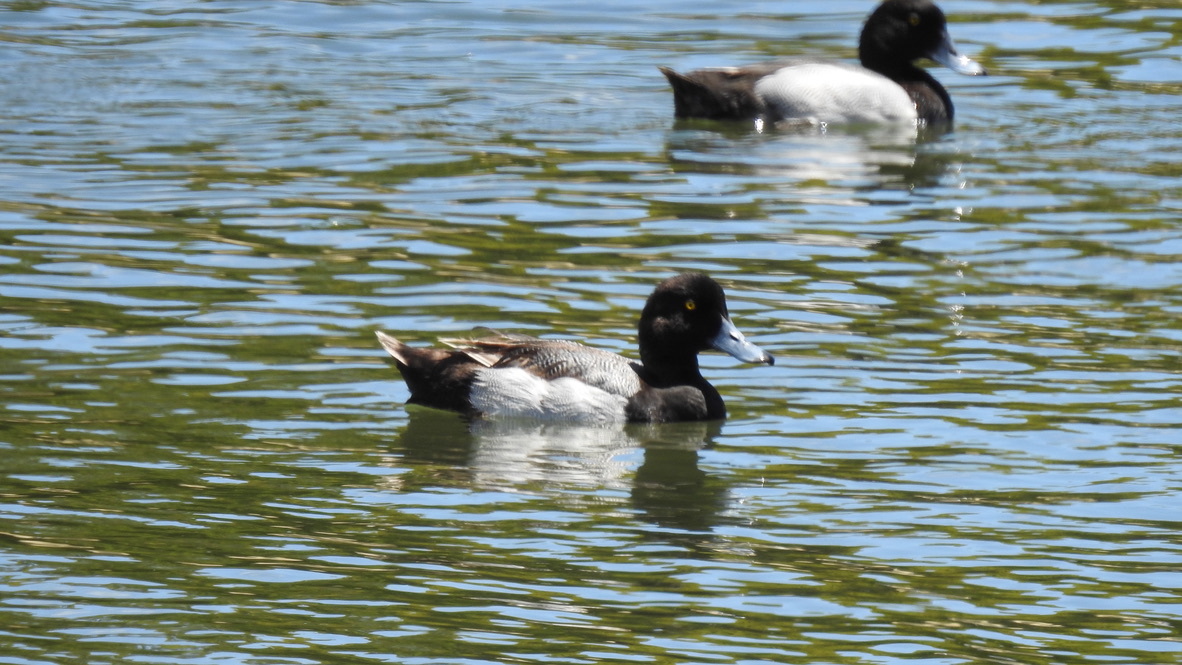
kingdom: Animalia
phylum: Chordata
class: Aves
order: Anseriformes
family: Anatidae
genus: Aythya
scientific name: Aythya affinis
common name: Lesser scaup
